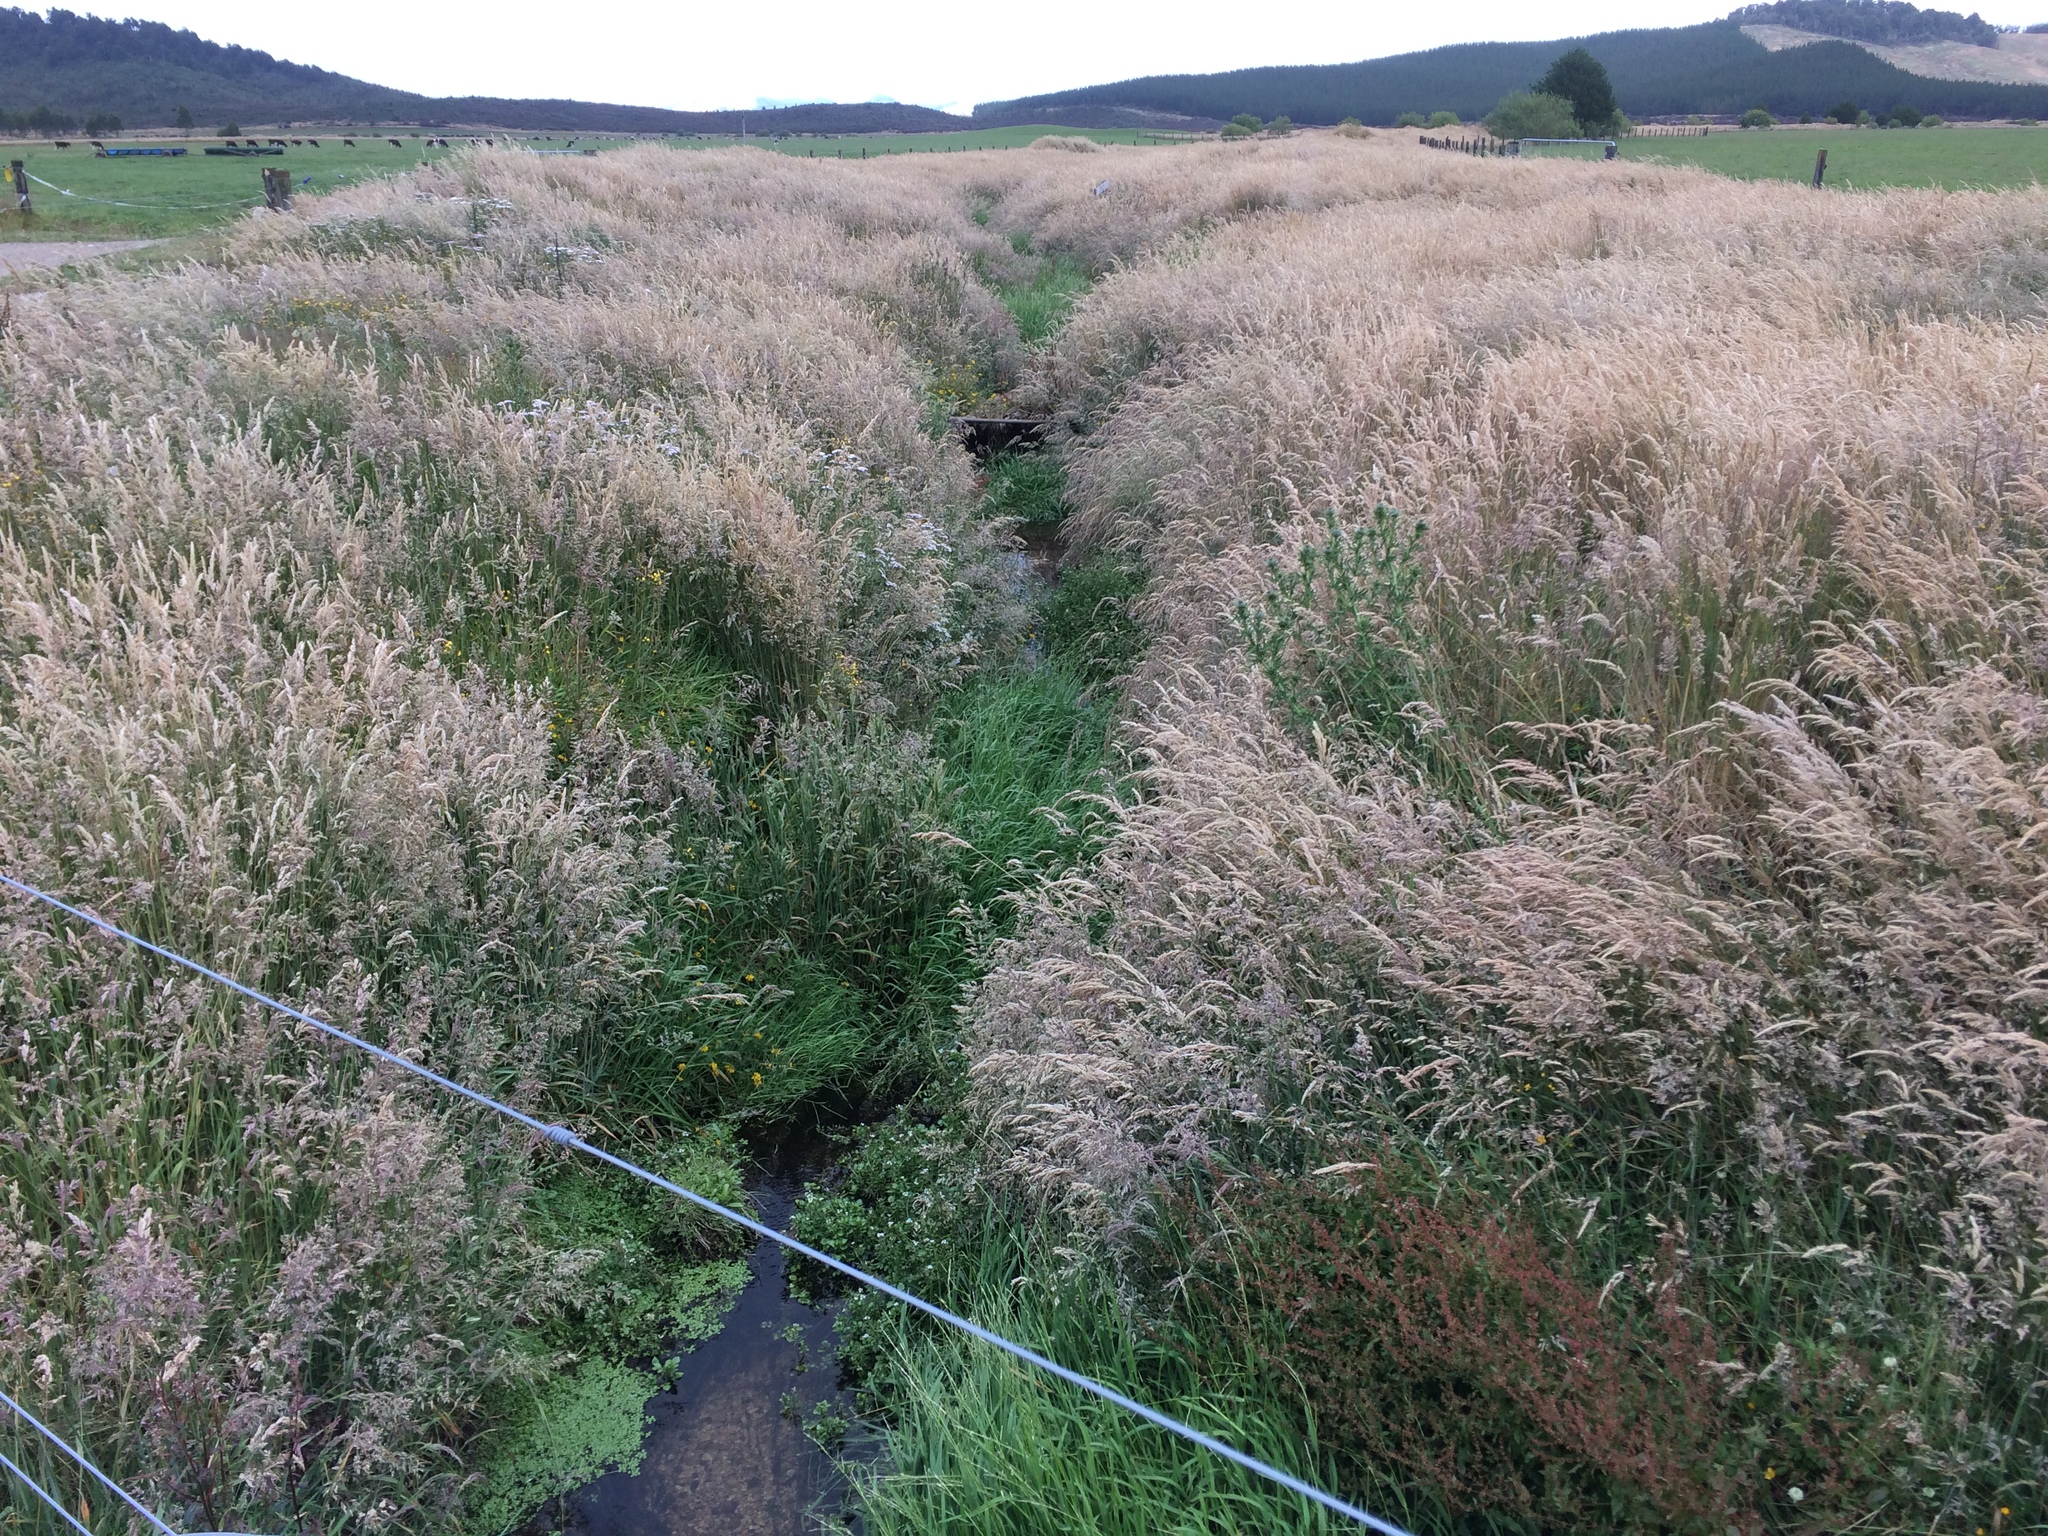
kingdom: Plantae
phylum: Tracheophyta
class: Liliopsida
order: Poales
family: Poaceae
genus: Holcus
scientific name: Holcus lanatus
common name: Yorkshire-fog
